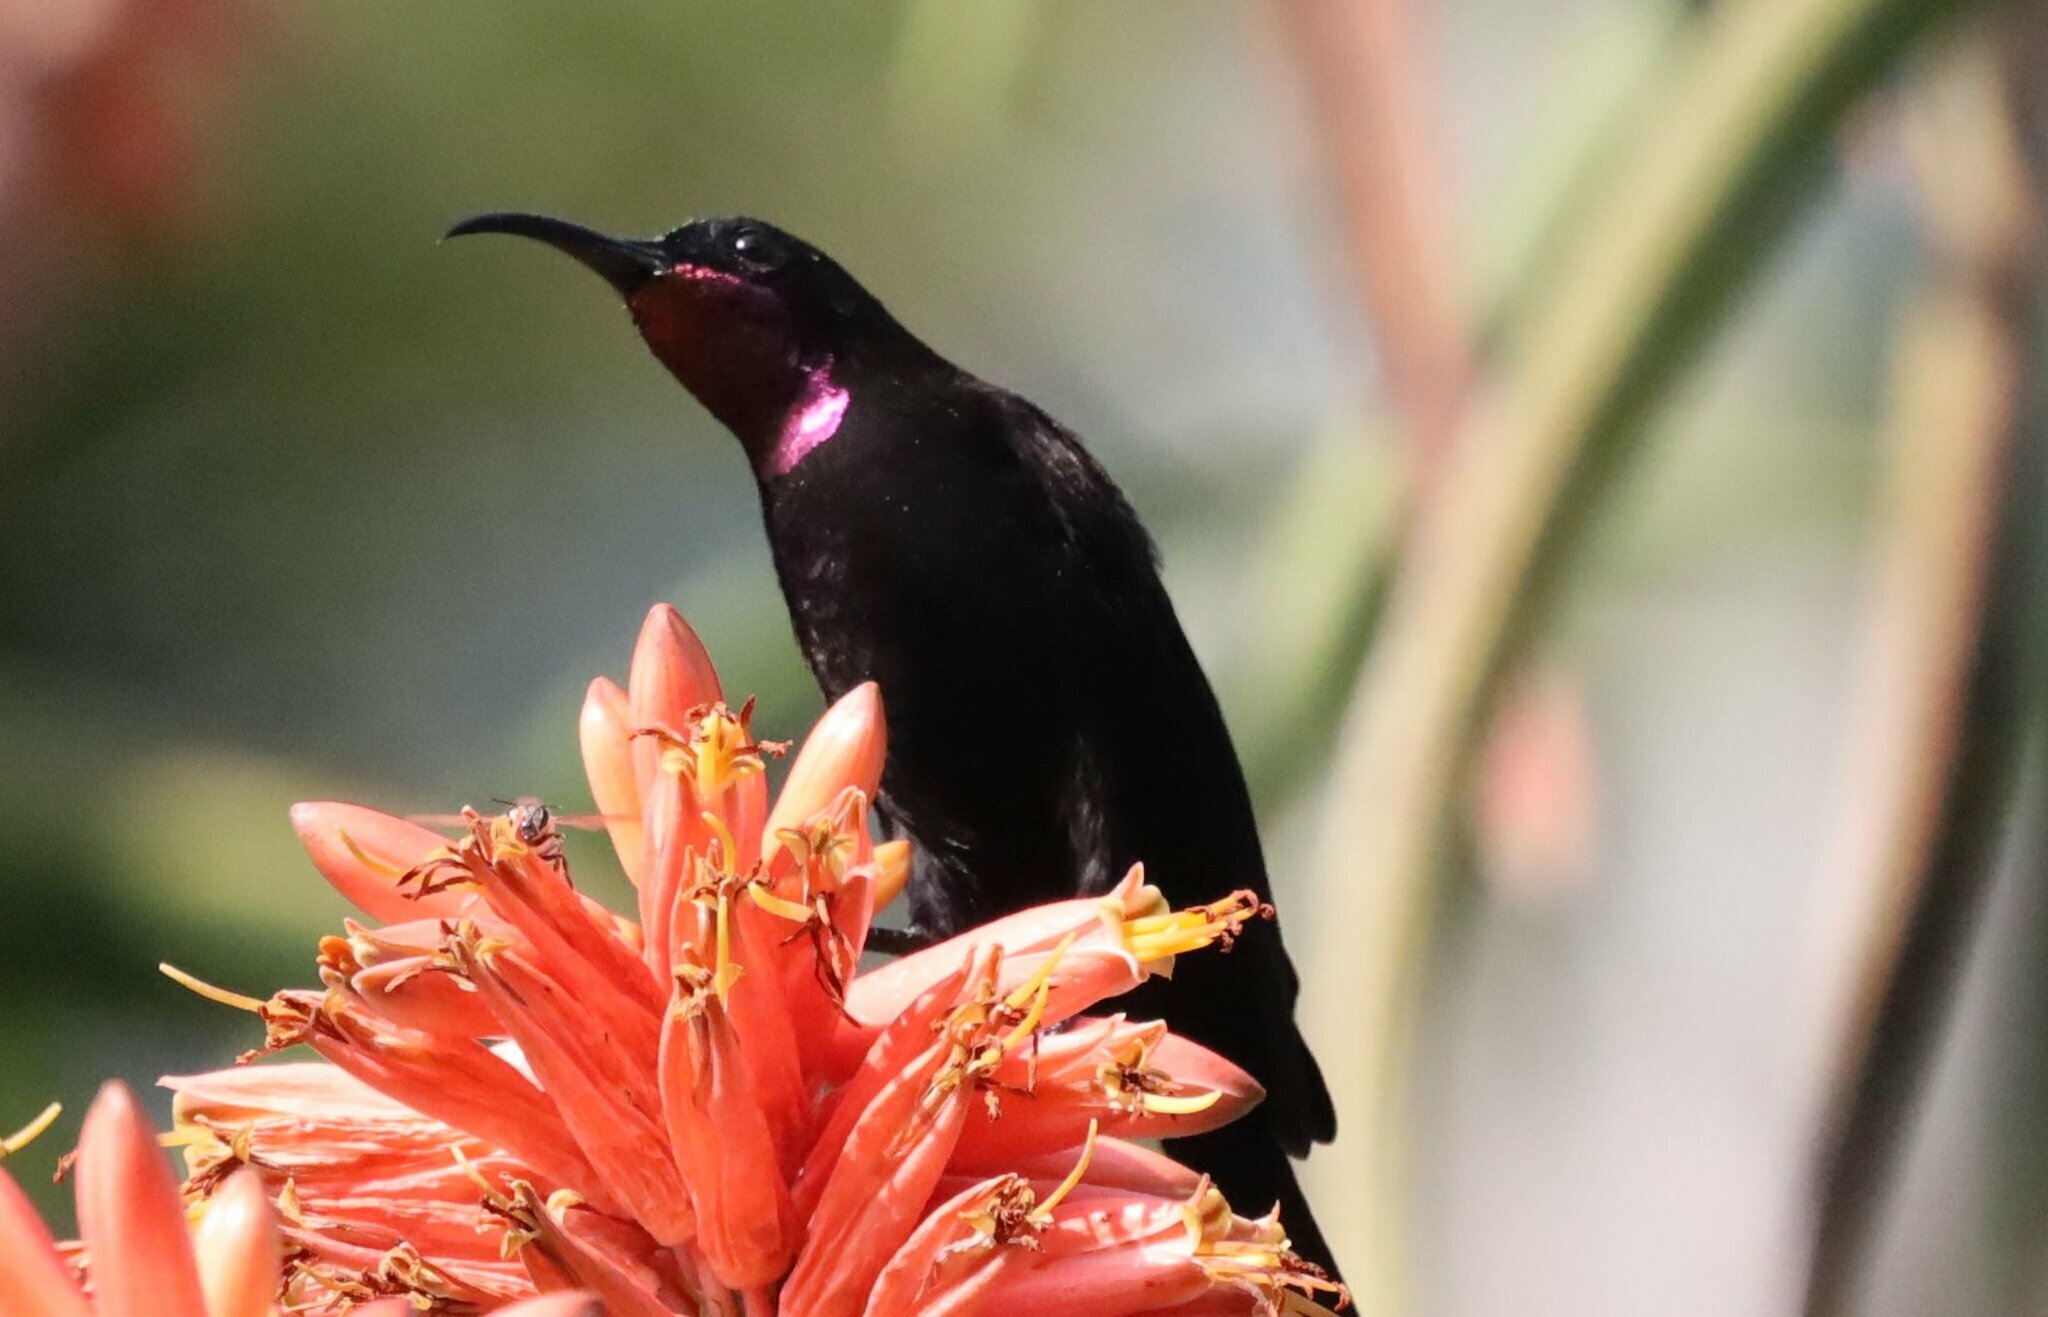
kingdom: Animalia
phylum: Chordata
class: Aves
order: Passeriformes
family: Nectariniidae
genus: Chalcomitra
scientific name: Chalcomitra amethystina
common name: Amethyst sunbird
